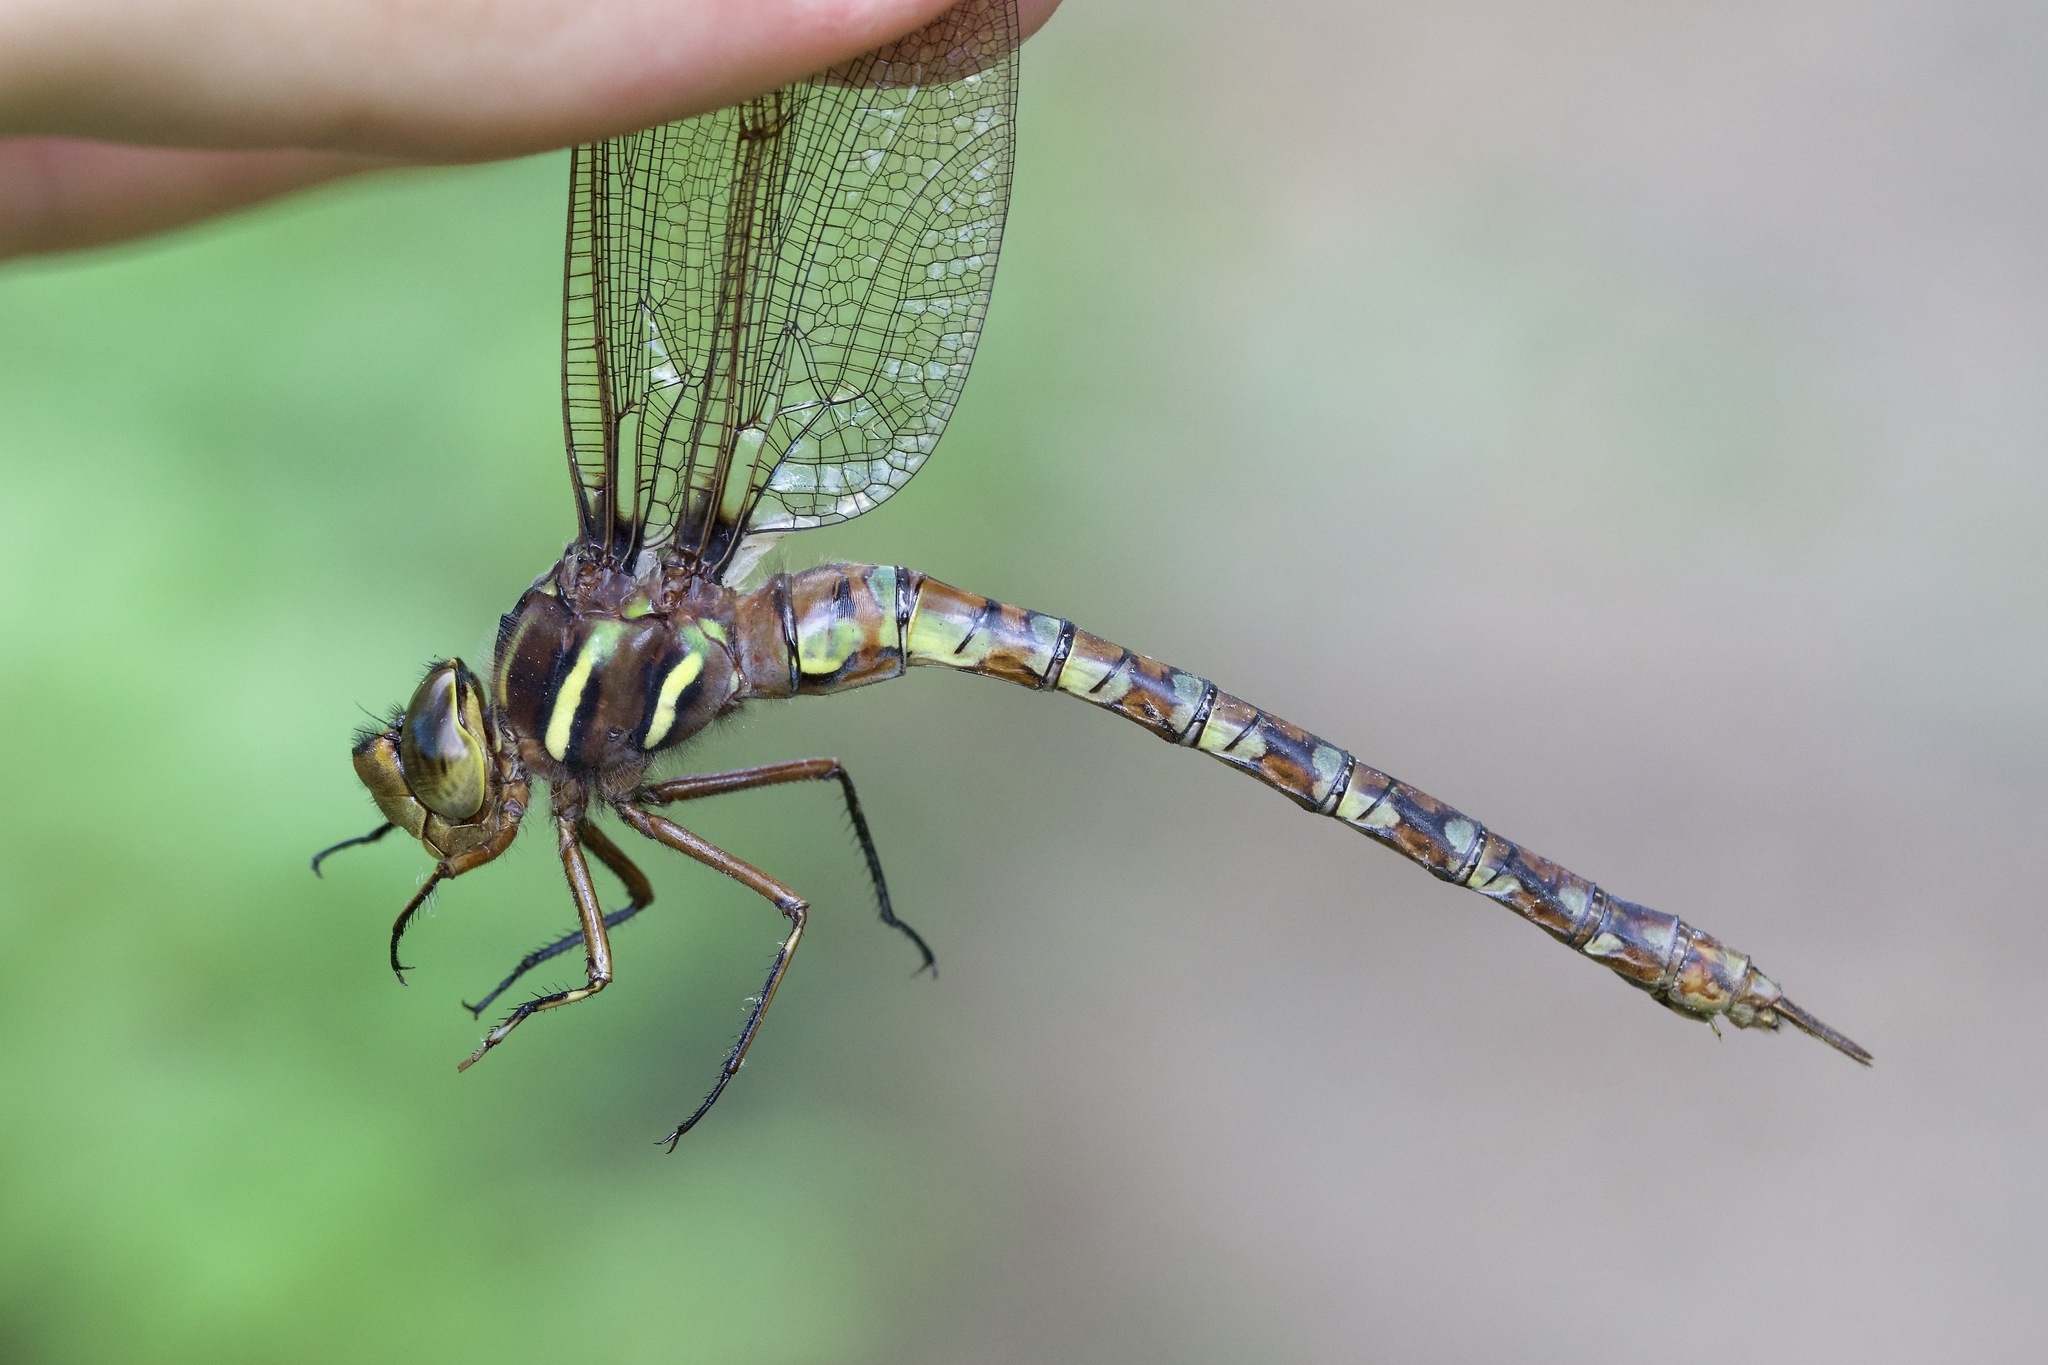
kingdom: Animalia
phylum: Arthropoda
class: Insecta
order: Odonata
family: Aeshnidae
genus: Basiaeschna
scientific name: Basiaeschna janata
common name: Springtime darner
